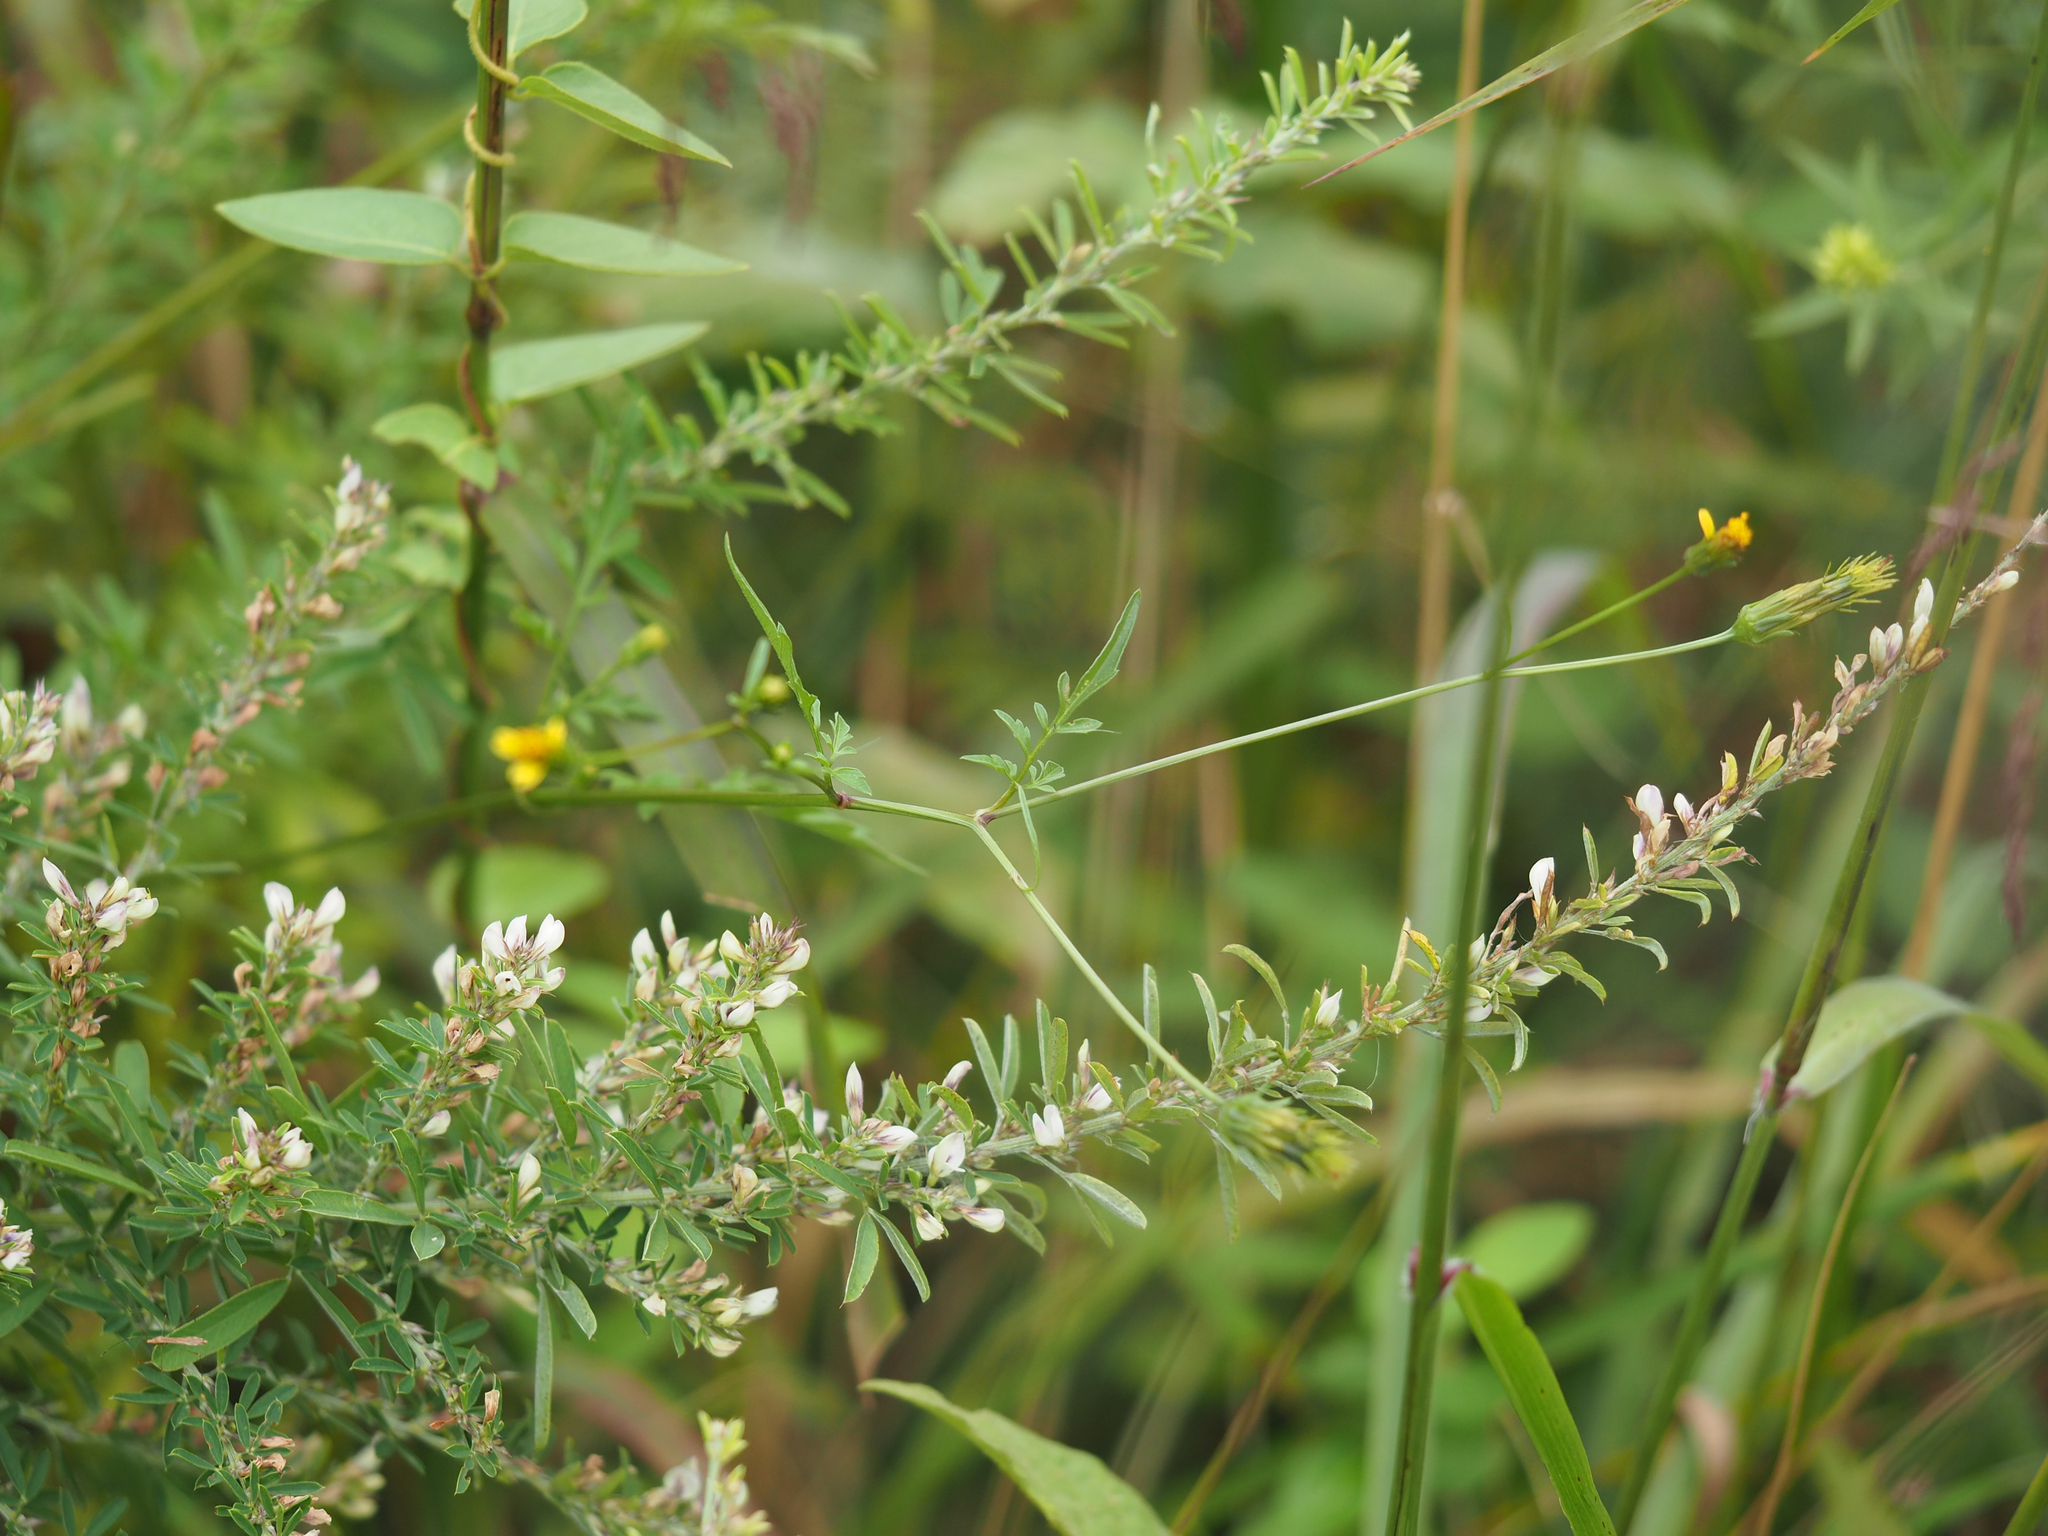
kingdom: Plantae
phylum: Tracheophyta
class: Magnoliopsida
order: Fabales
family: Fabaceae
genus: Lespedeza
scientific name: Lespedeza cuneata
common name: Chinese bush-clover
